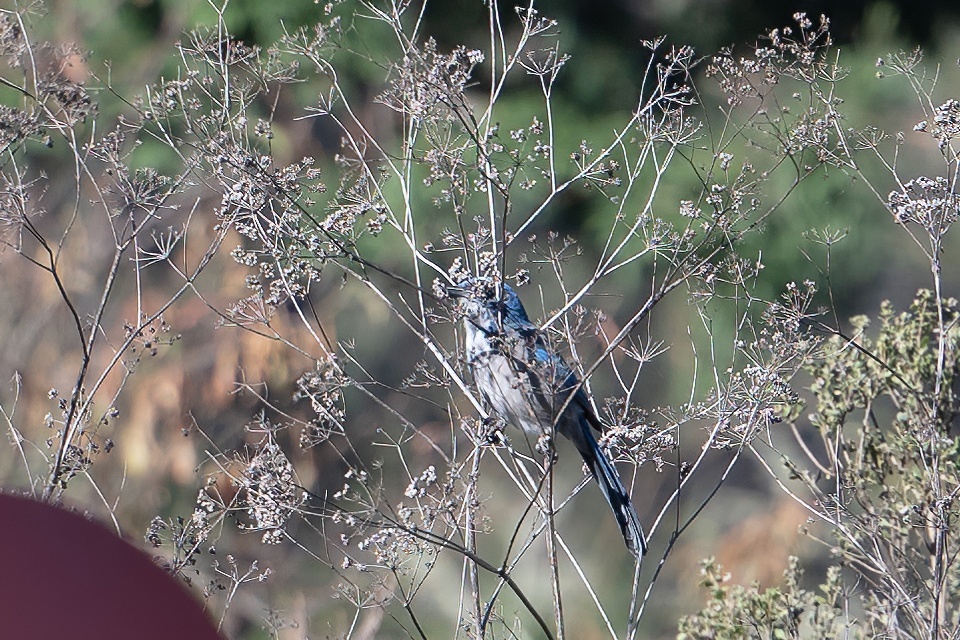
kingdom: Animalia
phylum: Chordata
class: Aves
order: Passeriformes
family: Corvidae
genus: Aphelocoma
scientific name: Aphelocoma californica
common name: California scrub-jay
